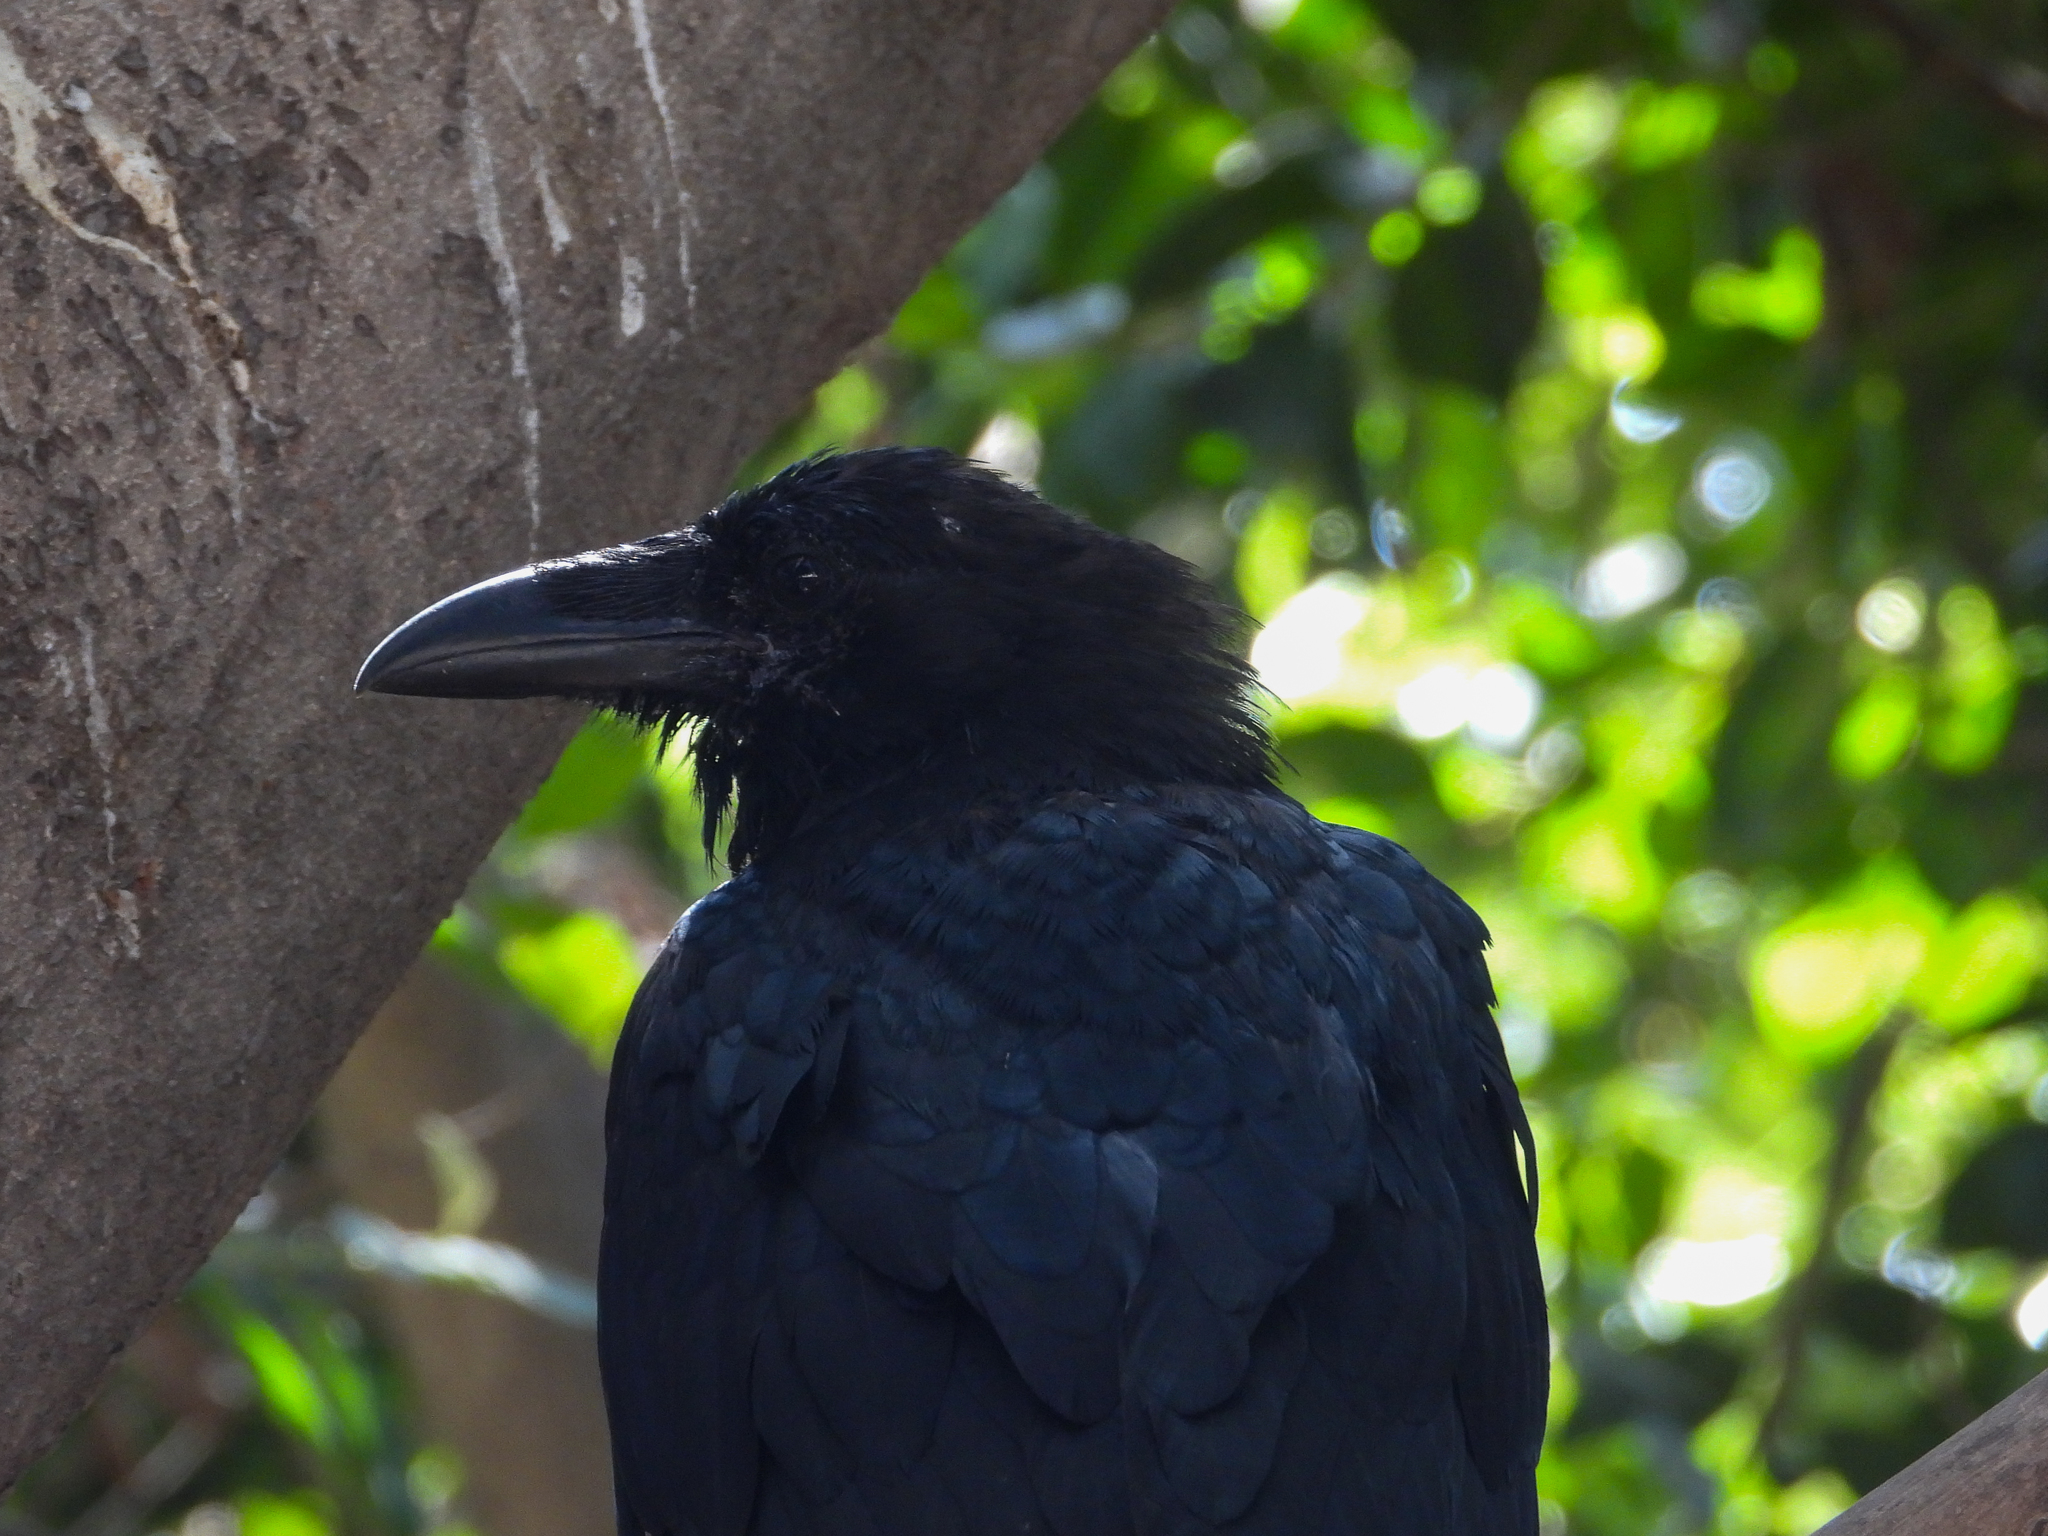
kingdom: Animalia
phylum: Chordata
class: Aves
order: Passeriformes
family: Corvidae
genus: Corvus
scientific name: Corvus corax
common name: Common raven
